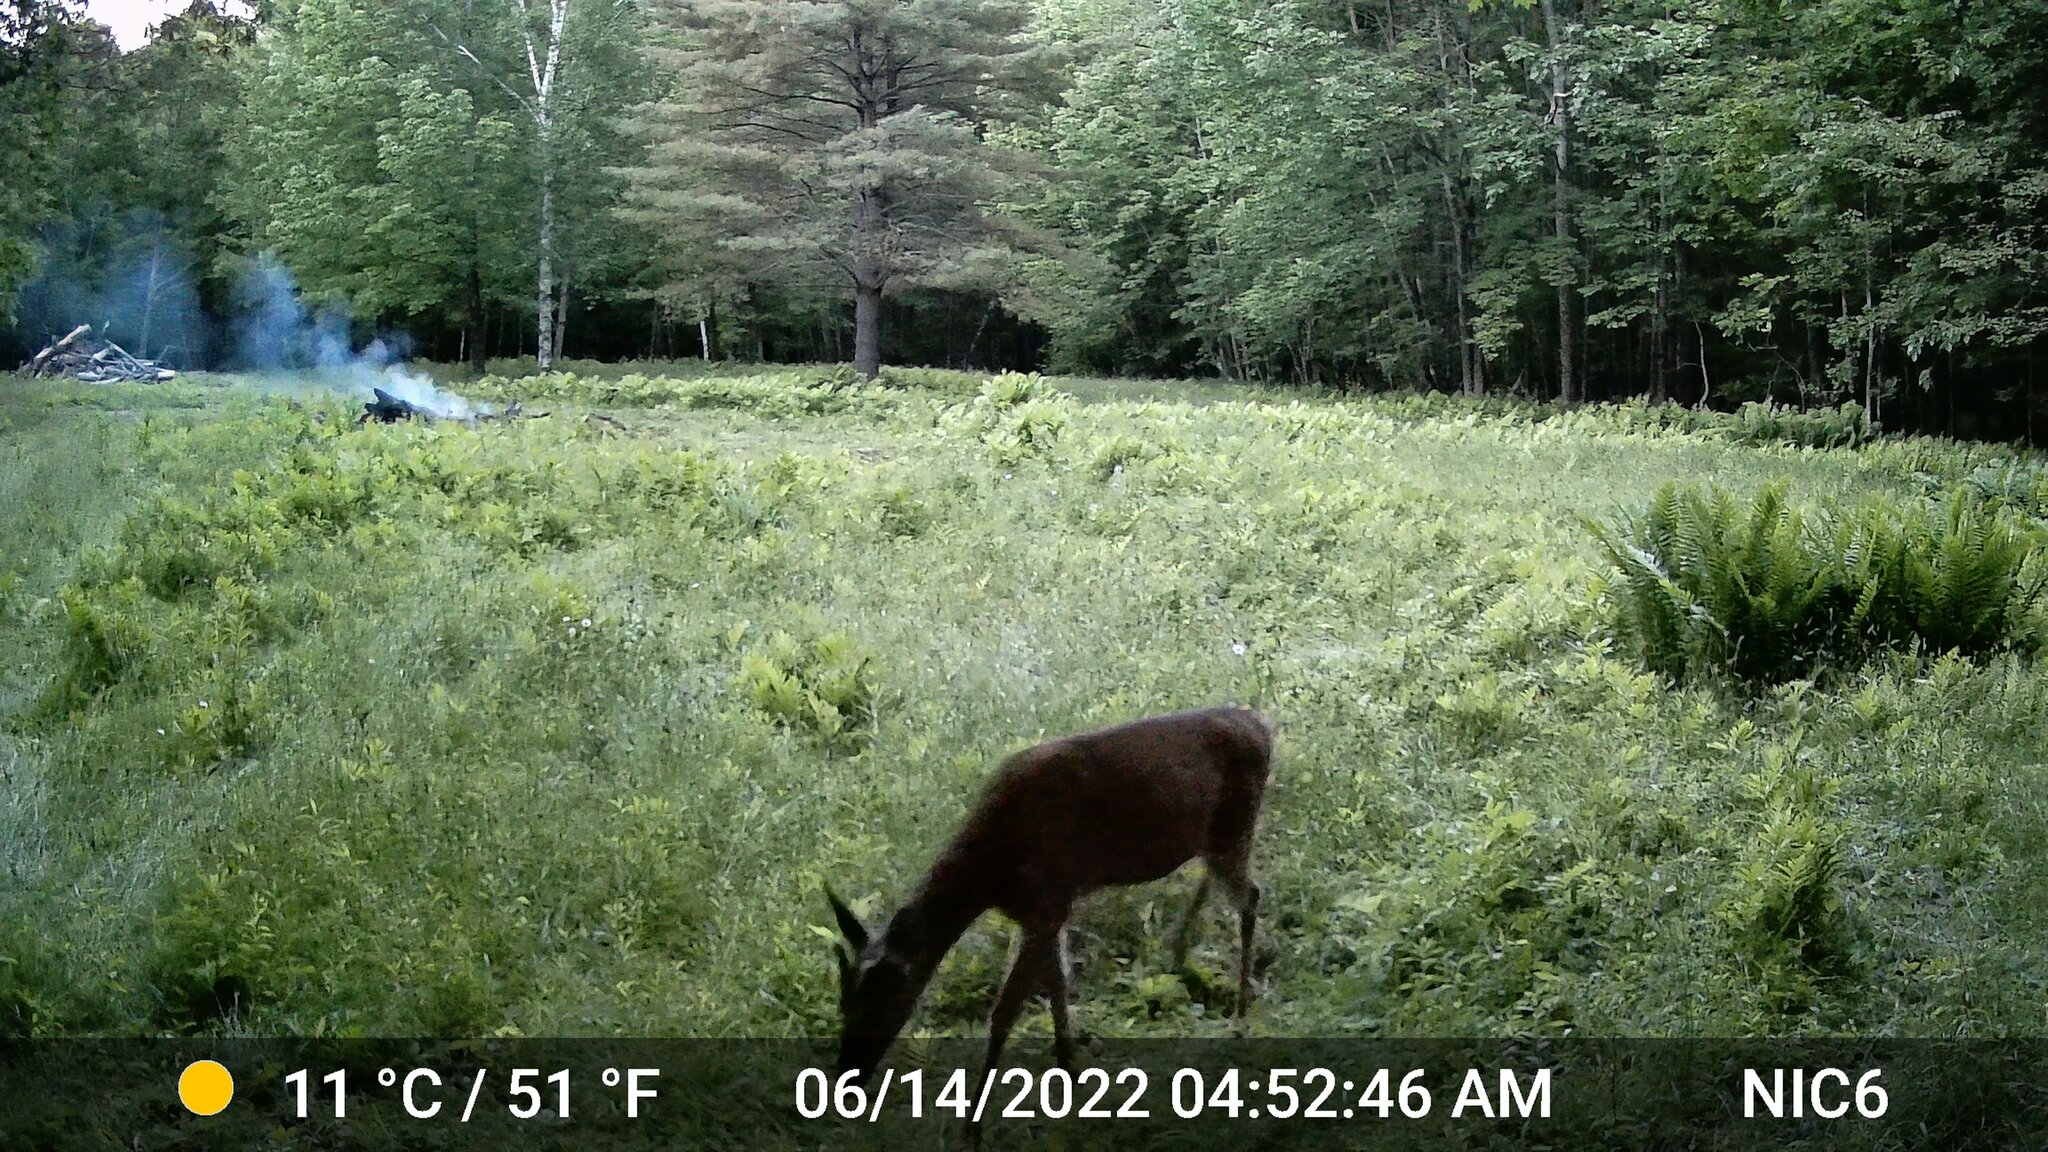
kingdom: Animalia
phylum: Chordata
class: Mammalia
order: Artiodactyla
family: Cervidae
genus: Odocoileus
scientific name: Odocoileus virginianus
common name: White-tailed deer
